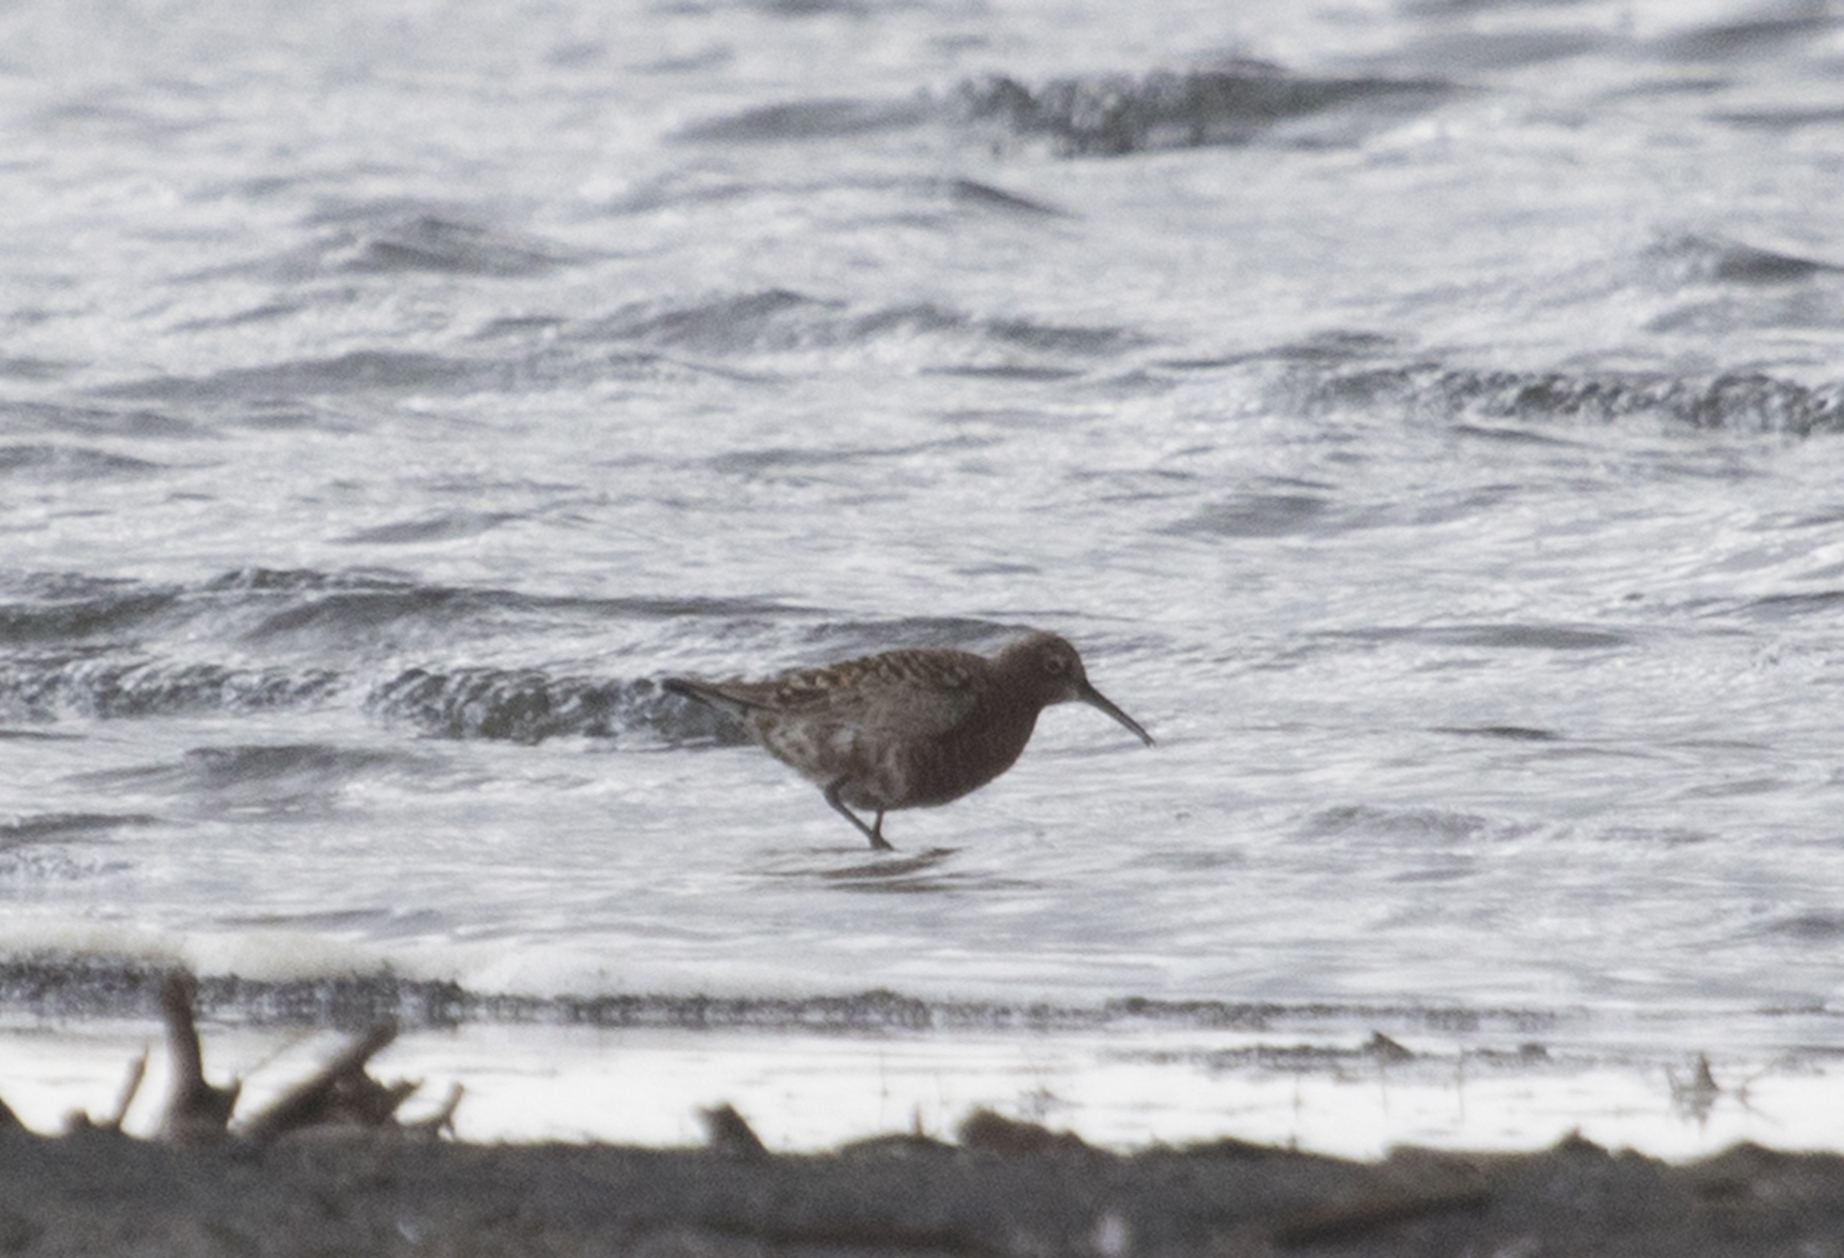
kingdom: Animalia
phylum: Chordata
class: Aves
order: Charadriiformes
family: Scolopacidae
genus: Calidris
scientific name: Calidris ferruginea
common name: Curlew sandpiper
